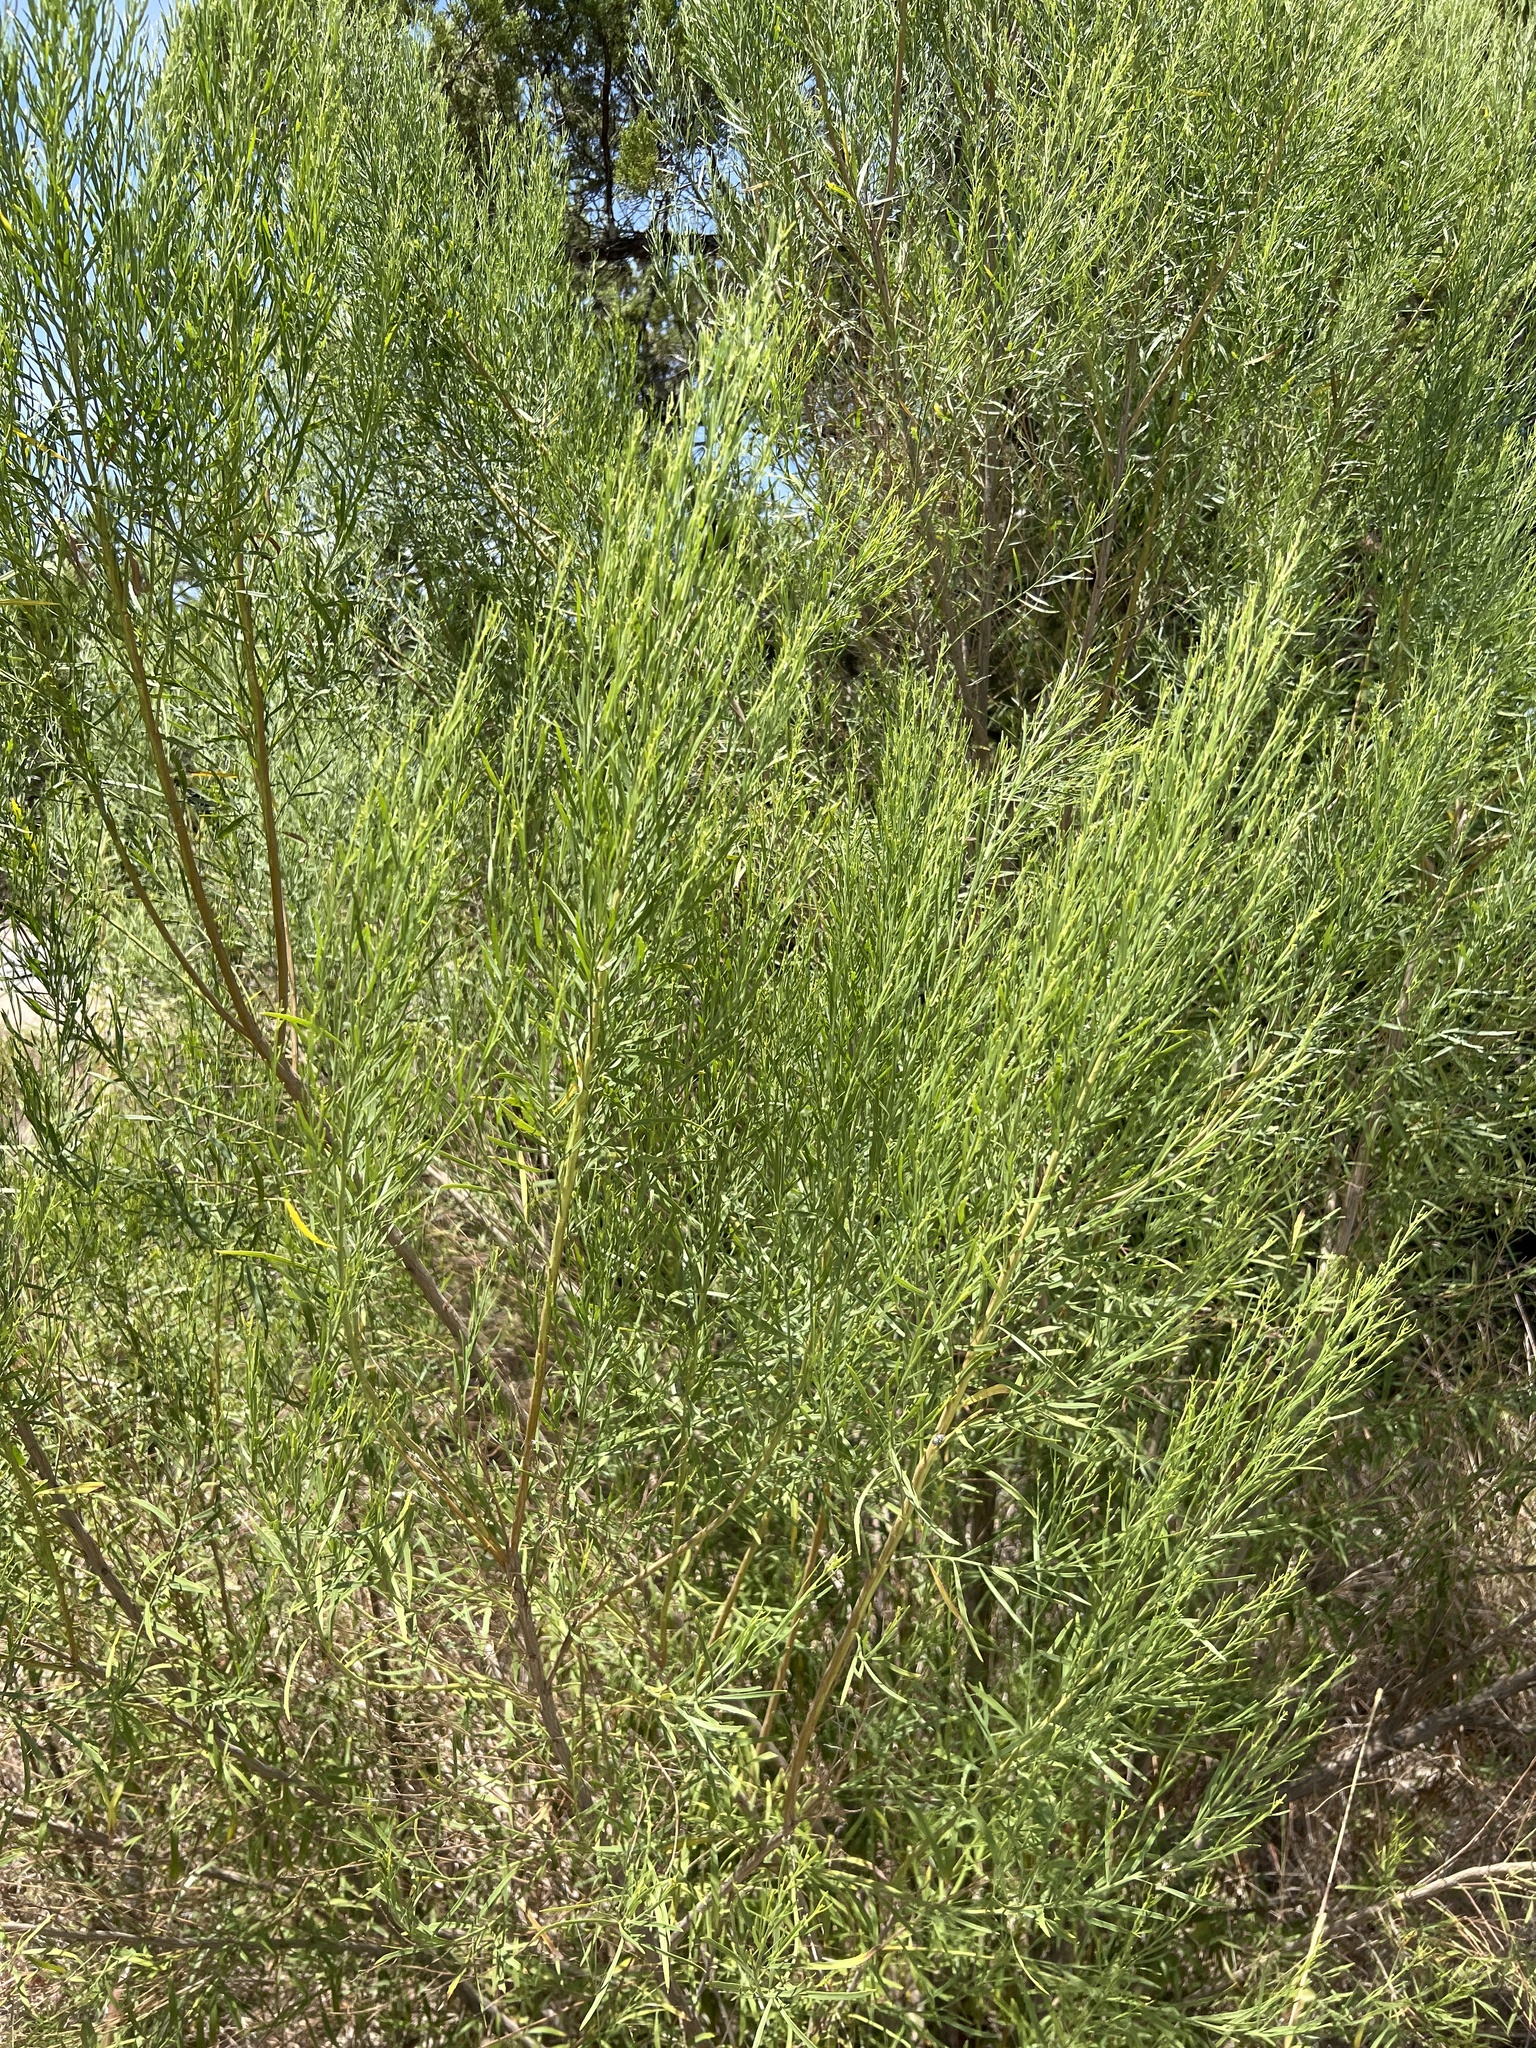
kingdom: Plantae
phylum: Tracheophyta
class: Magnoliopsida
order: Asterales
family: Asteraceae
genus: Baccharis
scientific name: Baccharis neglecta
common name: Roosevelt-weed
